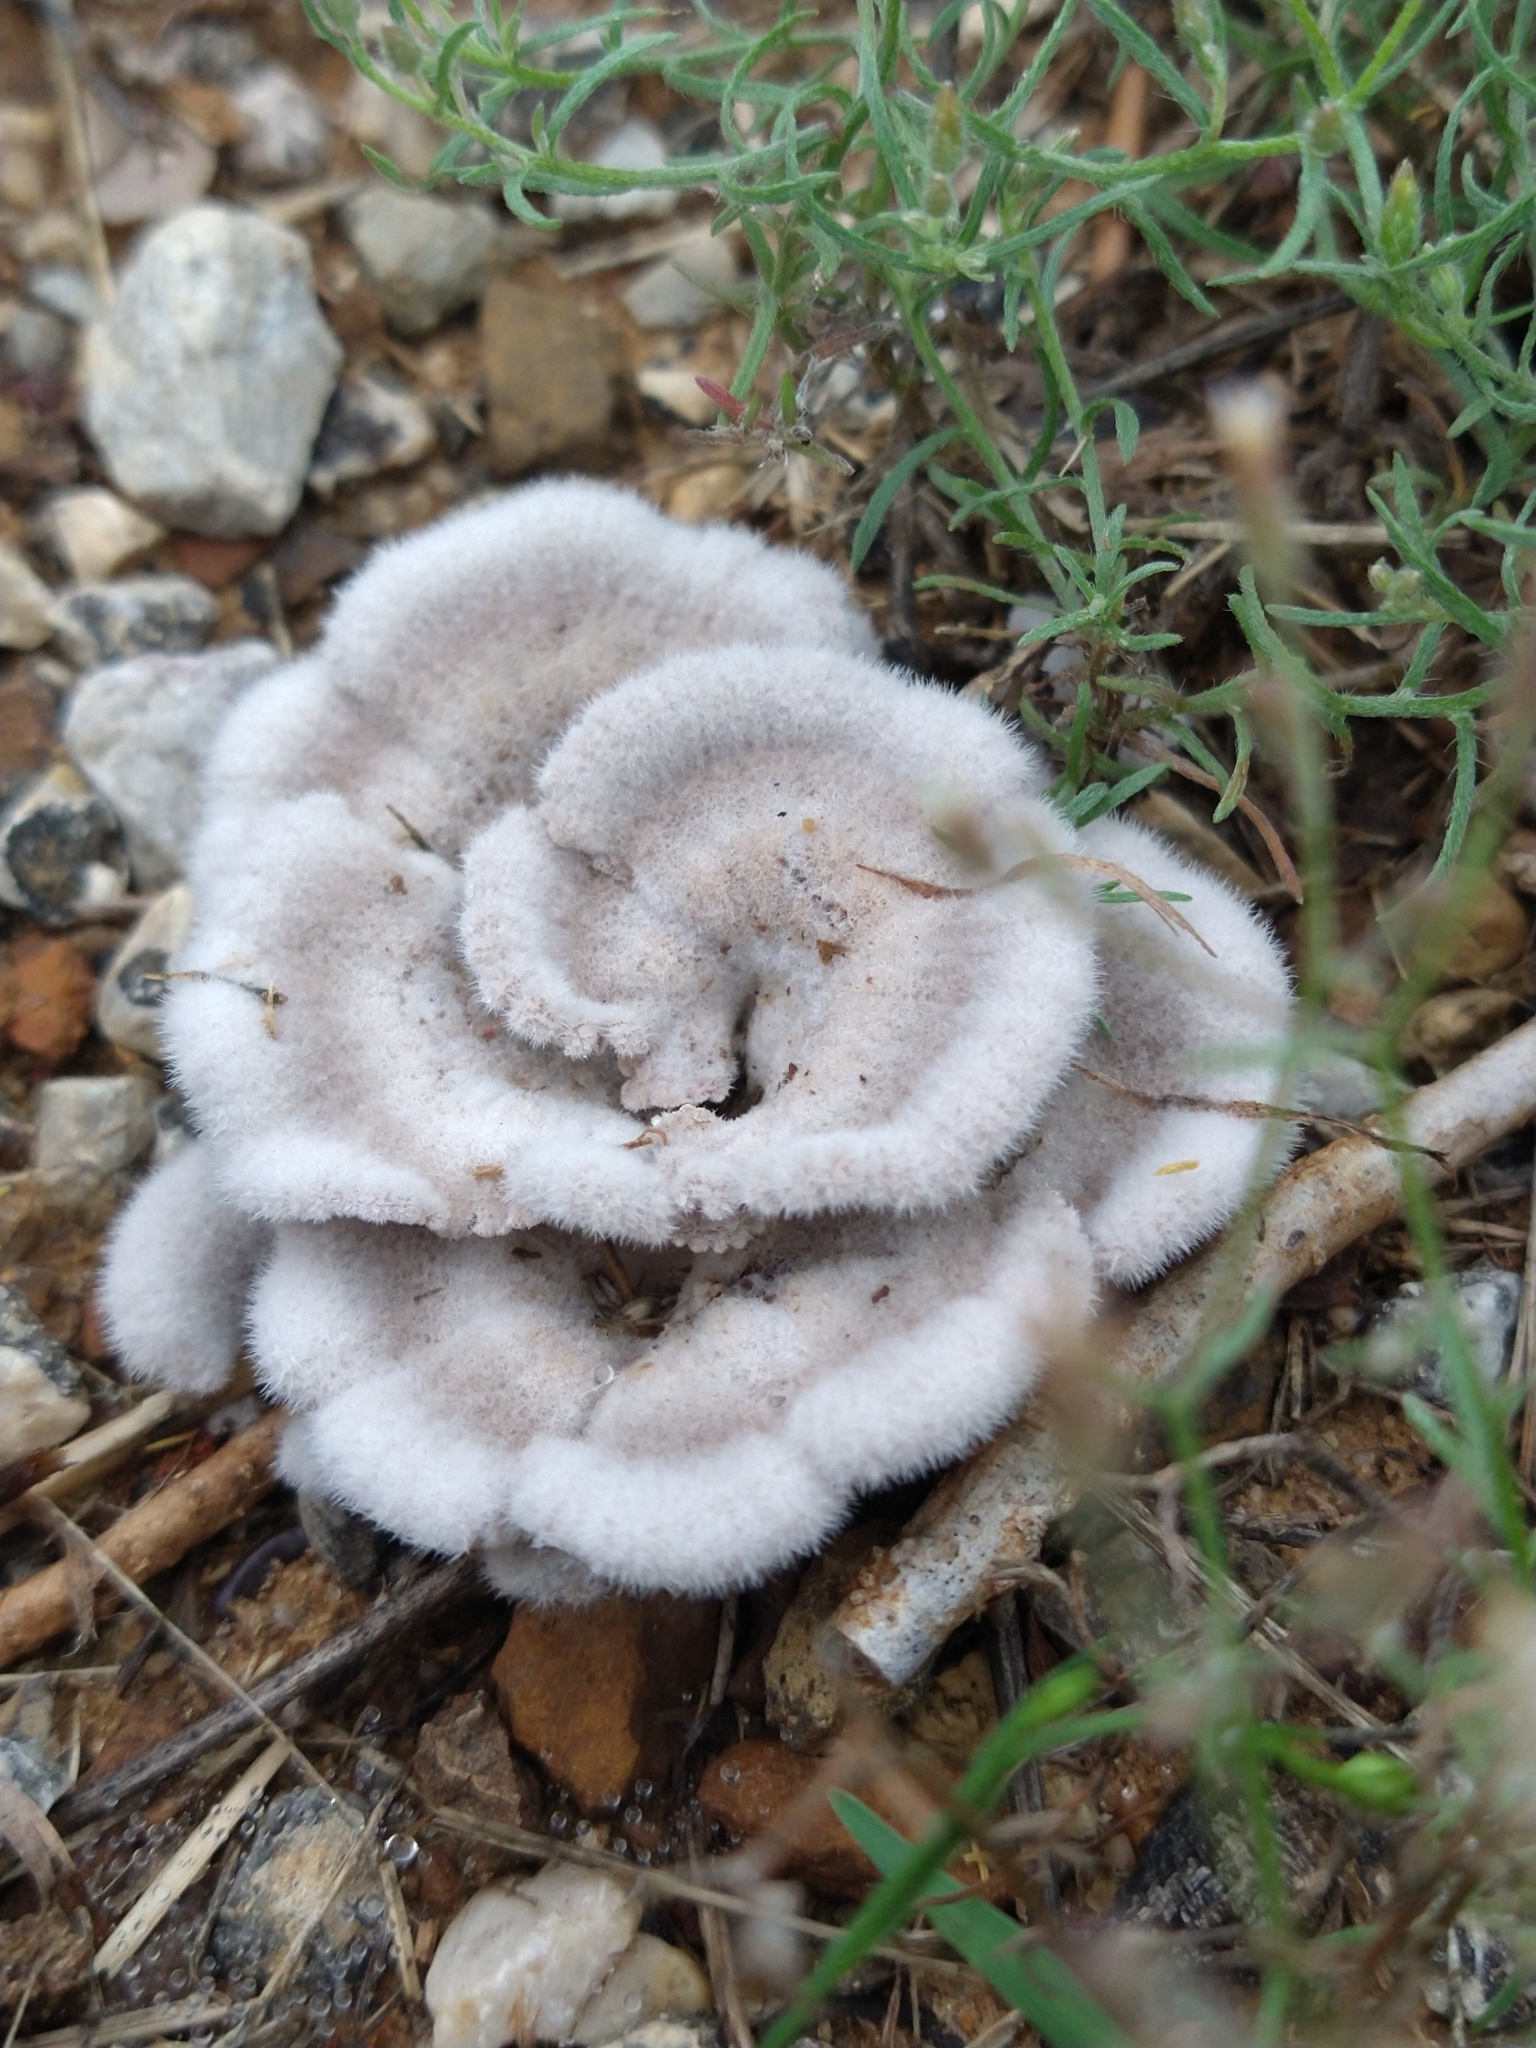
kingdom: Fungi
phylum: Basidiomycota
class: Agaricomycetes
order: Agaricales
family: Schizophyllaceae
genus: Schizophyllum
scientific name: Schizophyllum commune
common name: Common porecrust
